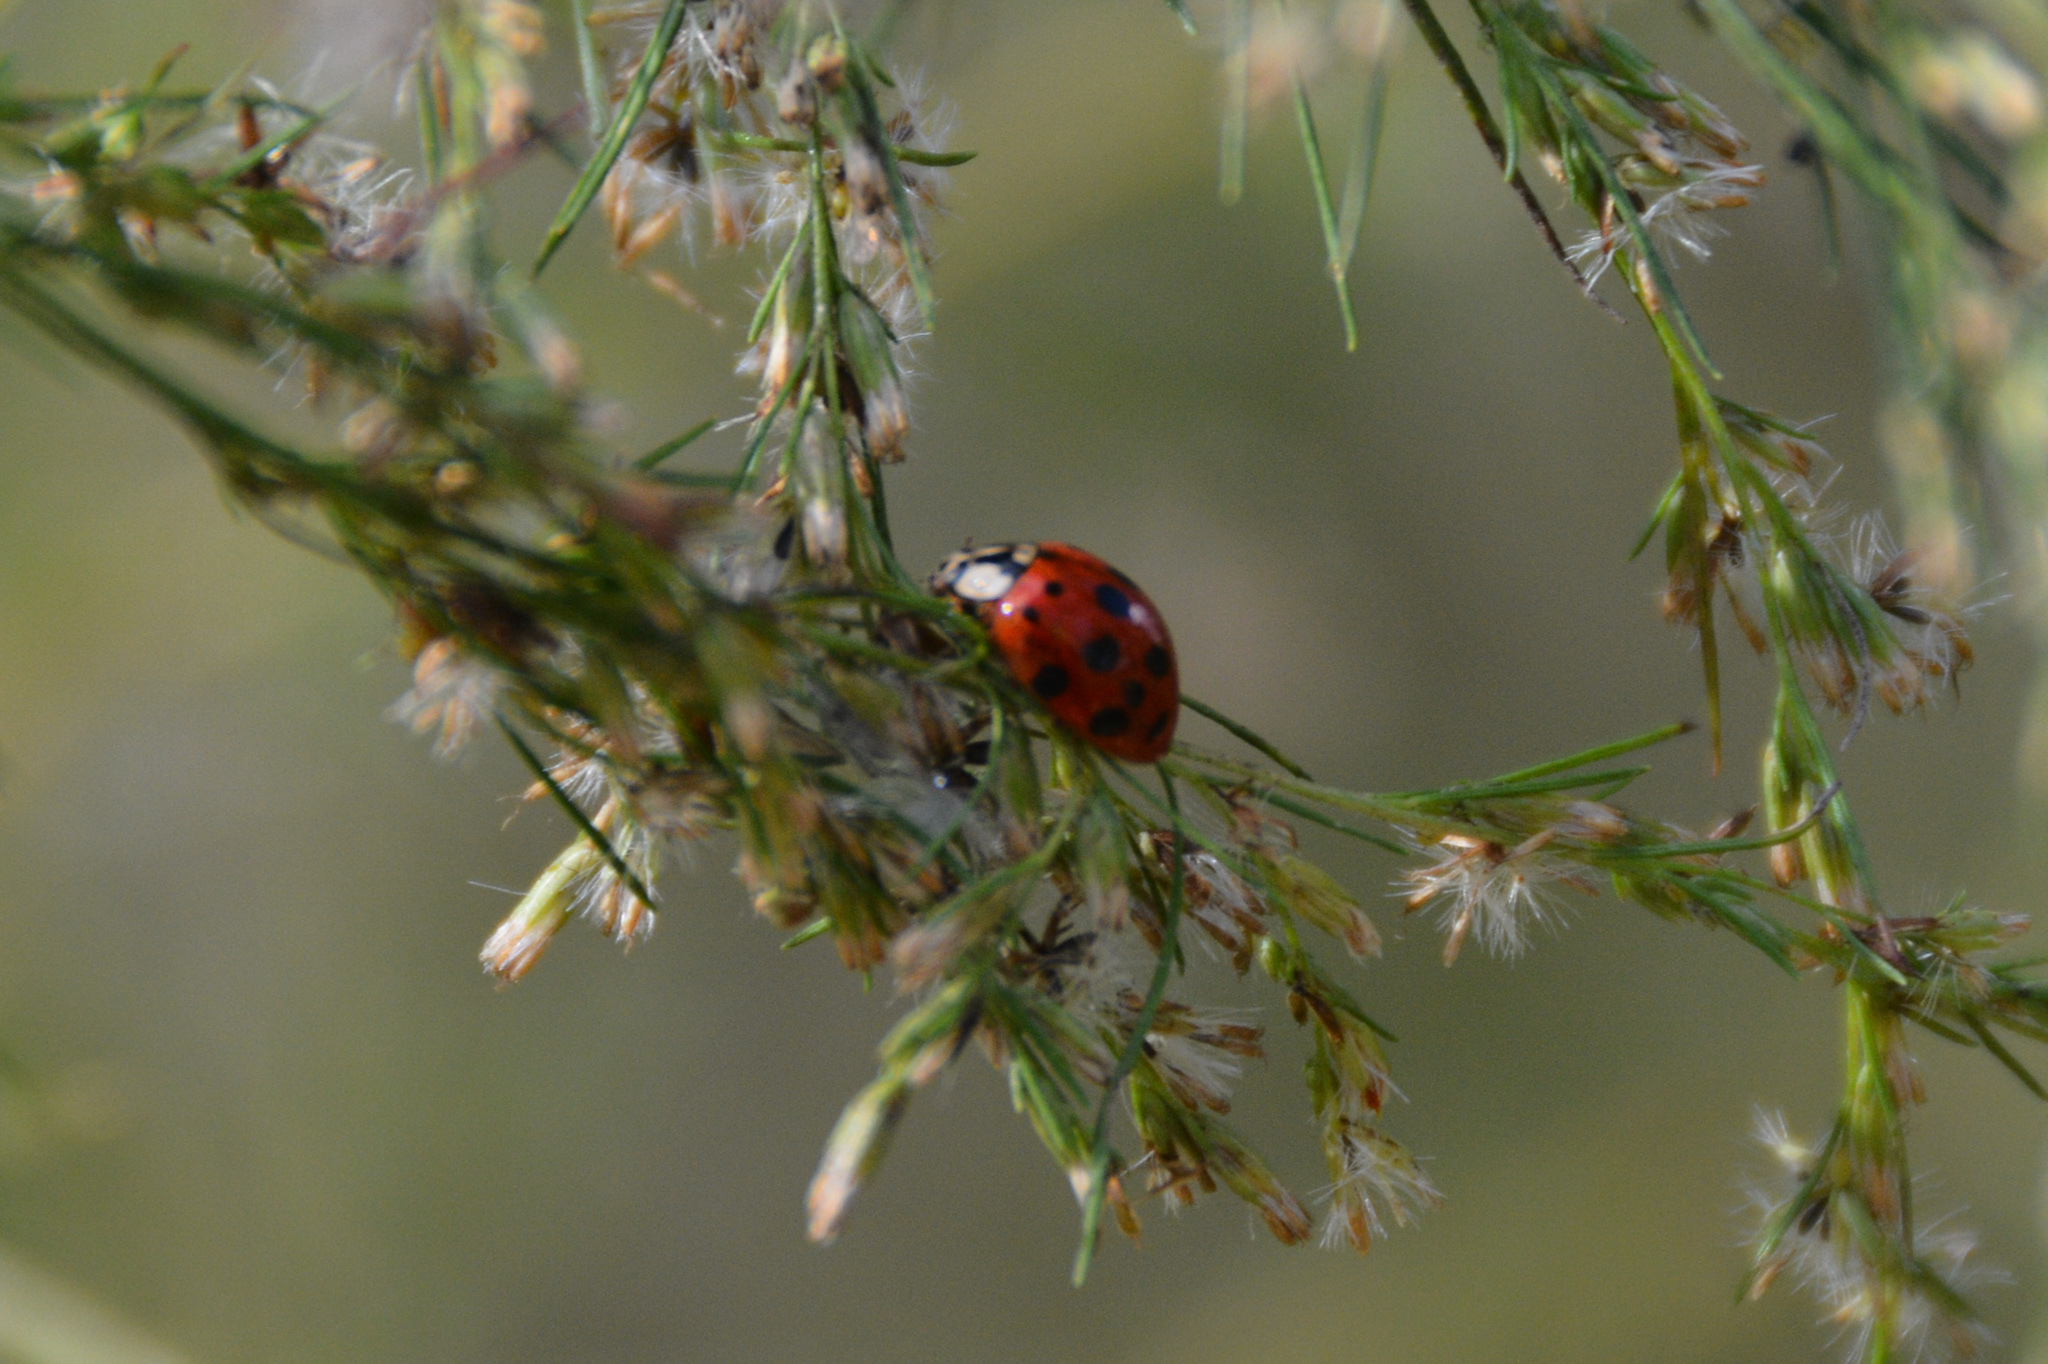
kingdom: Animalia
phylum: Arthropoda
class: Insecta
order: Coleoptera
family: Coccinellidae
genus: Harmonia
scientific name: Harmonia axyridis
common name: Harlequin ladybird
